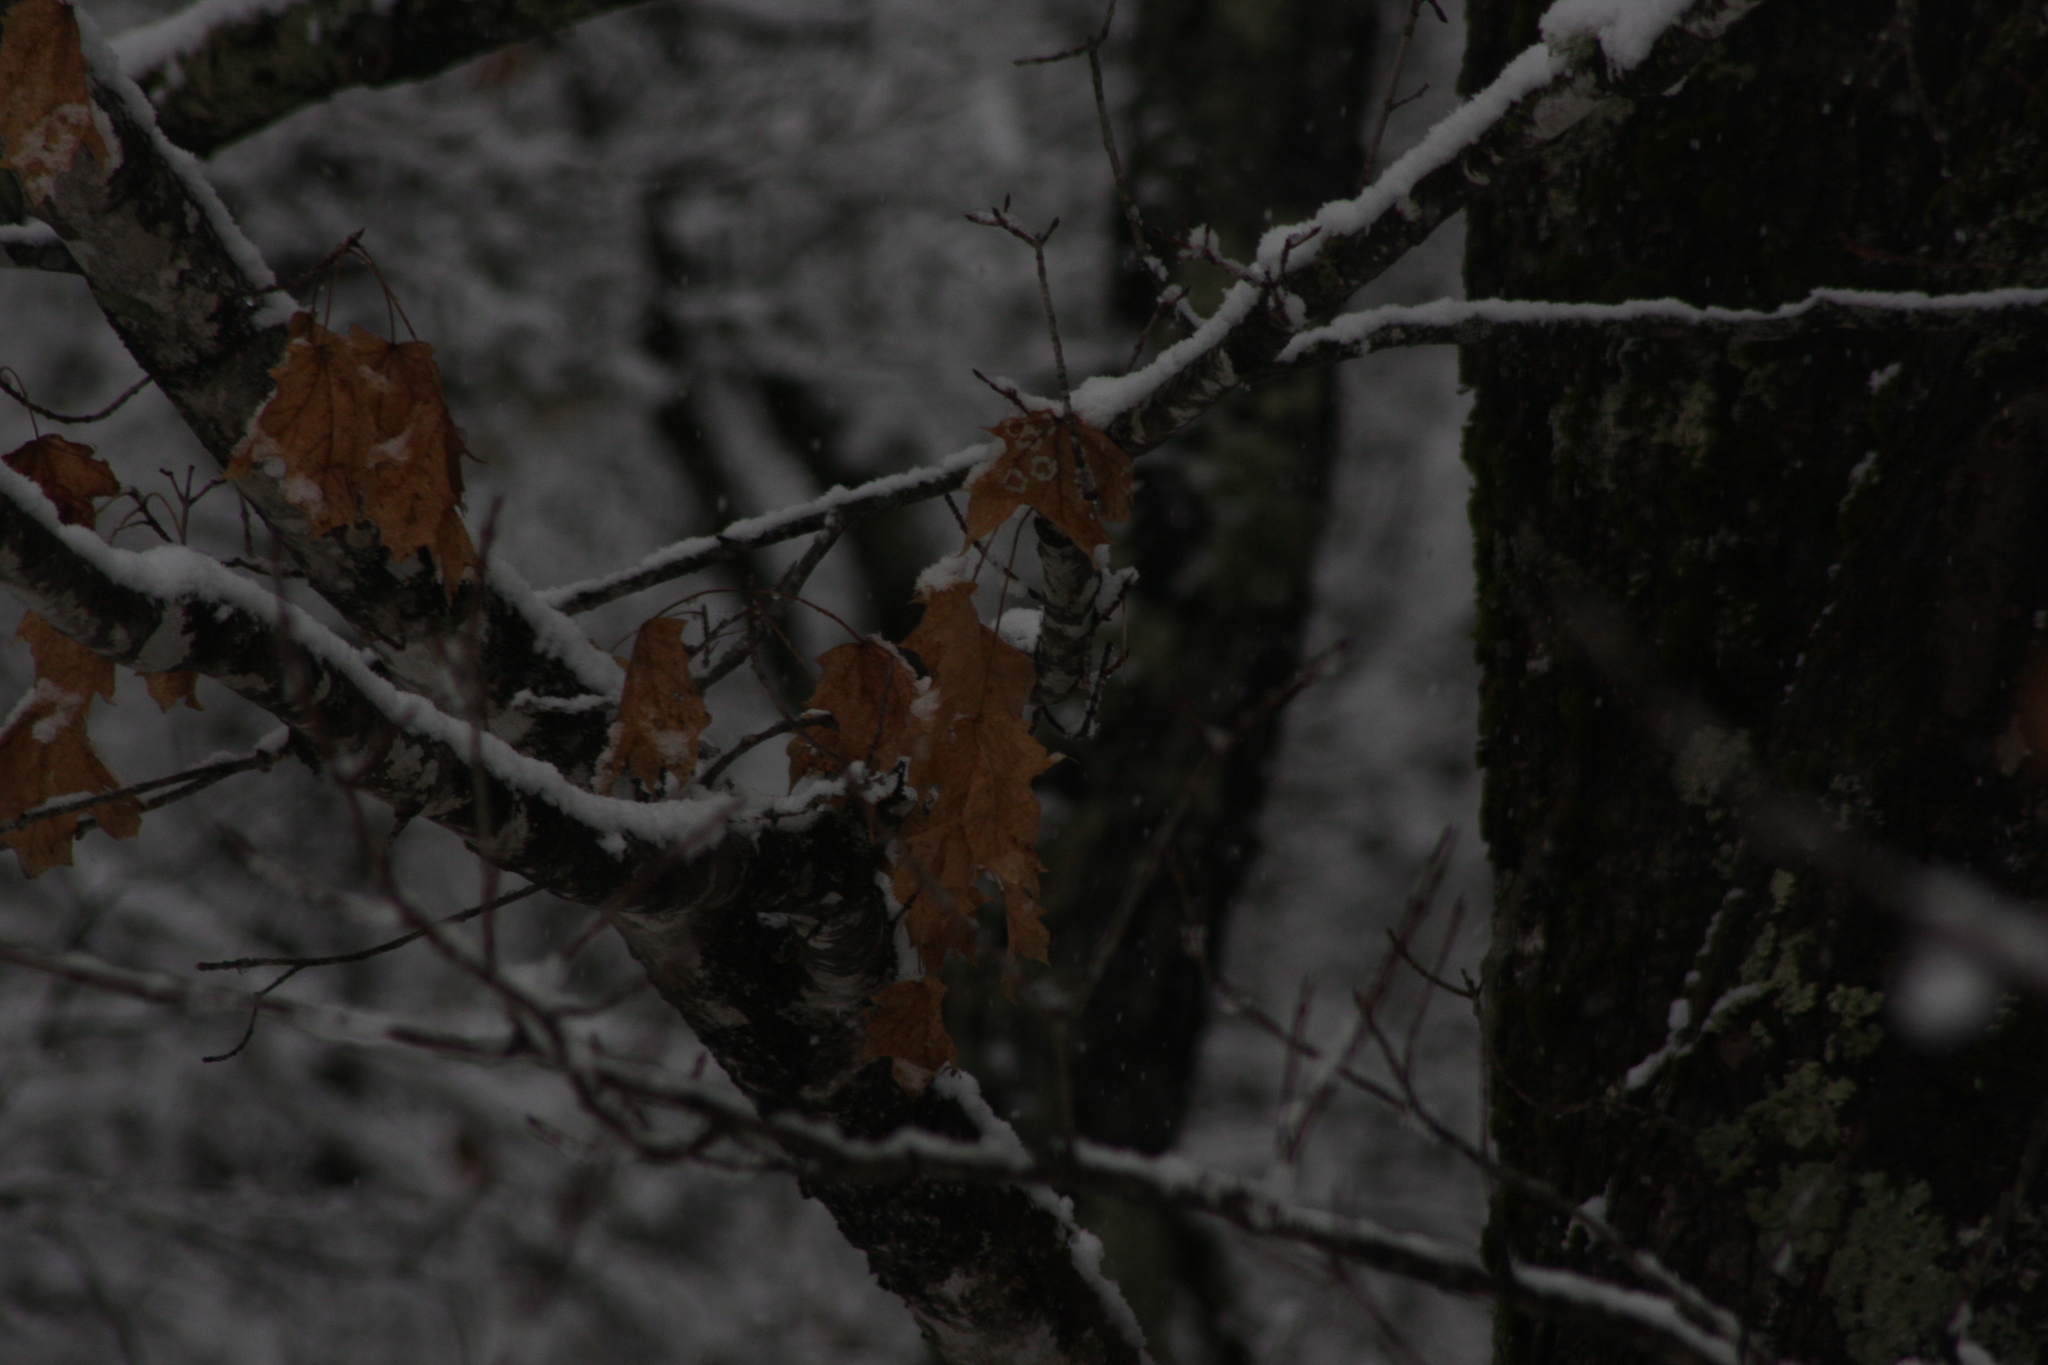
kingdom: Plantae
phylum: Tracheophyta
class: Magnoliopsida
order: Sapindales
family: Sapindaceae
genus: Acer
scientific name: Acer saccharum
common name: Sugar maple
